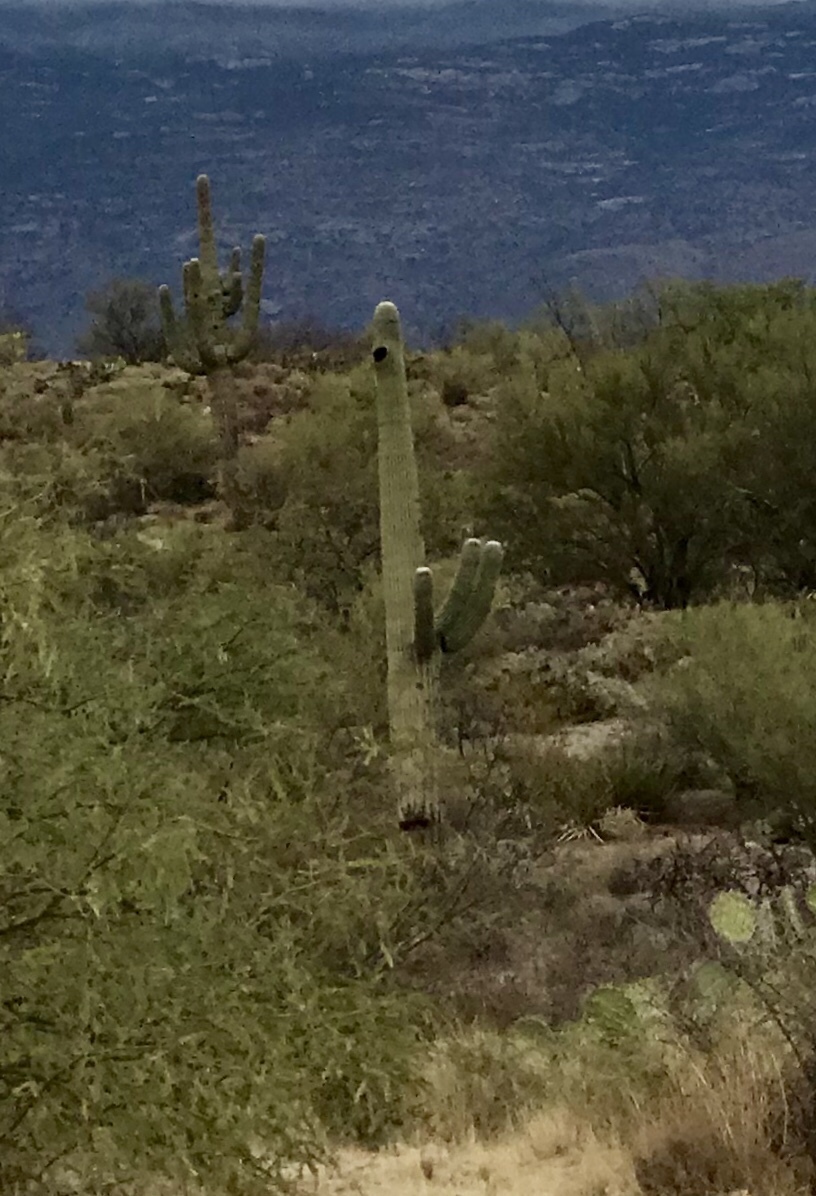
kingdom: Plantae
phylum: Tracheophyta
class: Magnoliopsida
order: Caryophyllales
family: Cactaceae
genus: Carnegiea
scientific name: Carnegiea gigantea
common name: Saguaro
